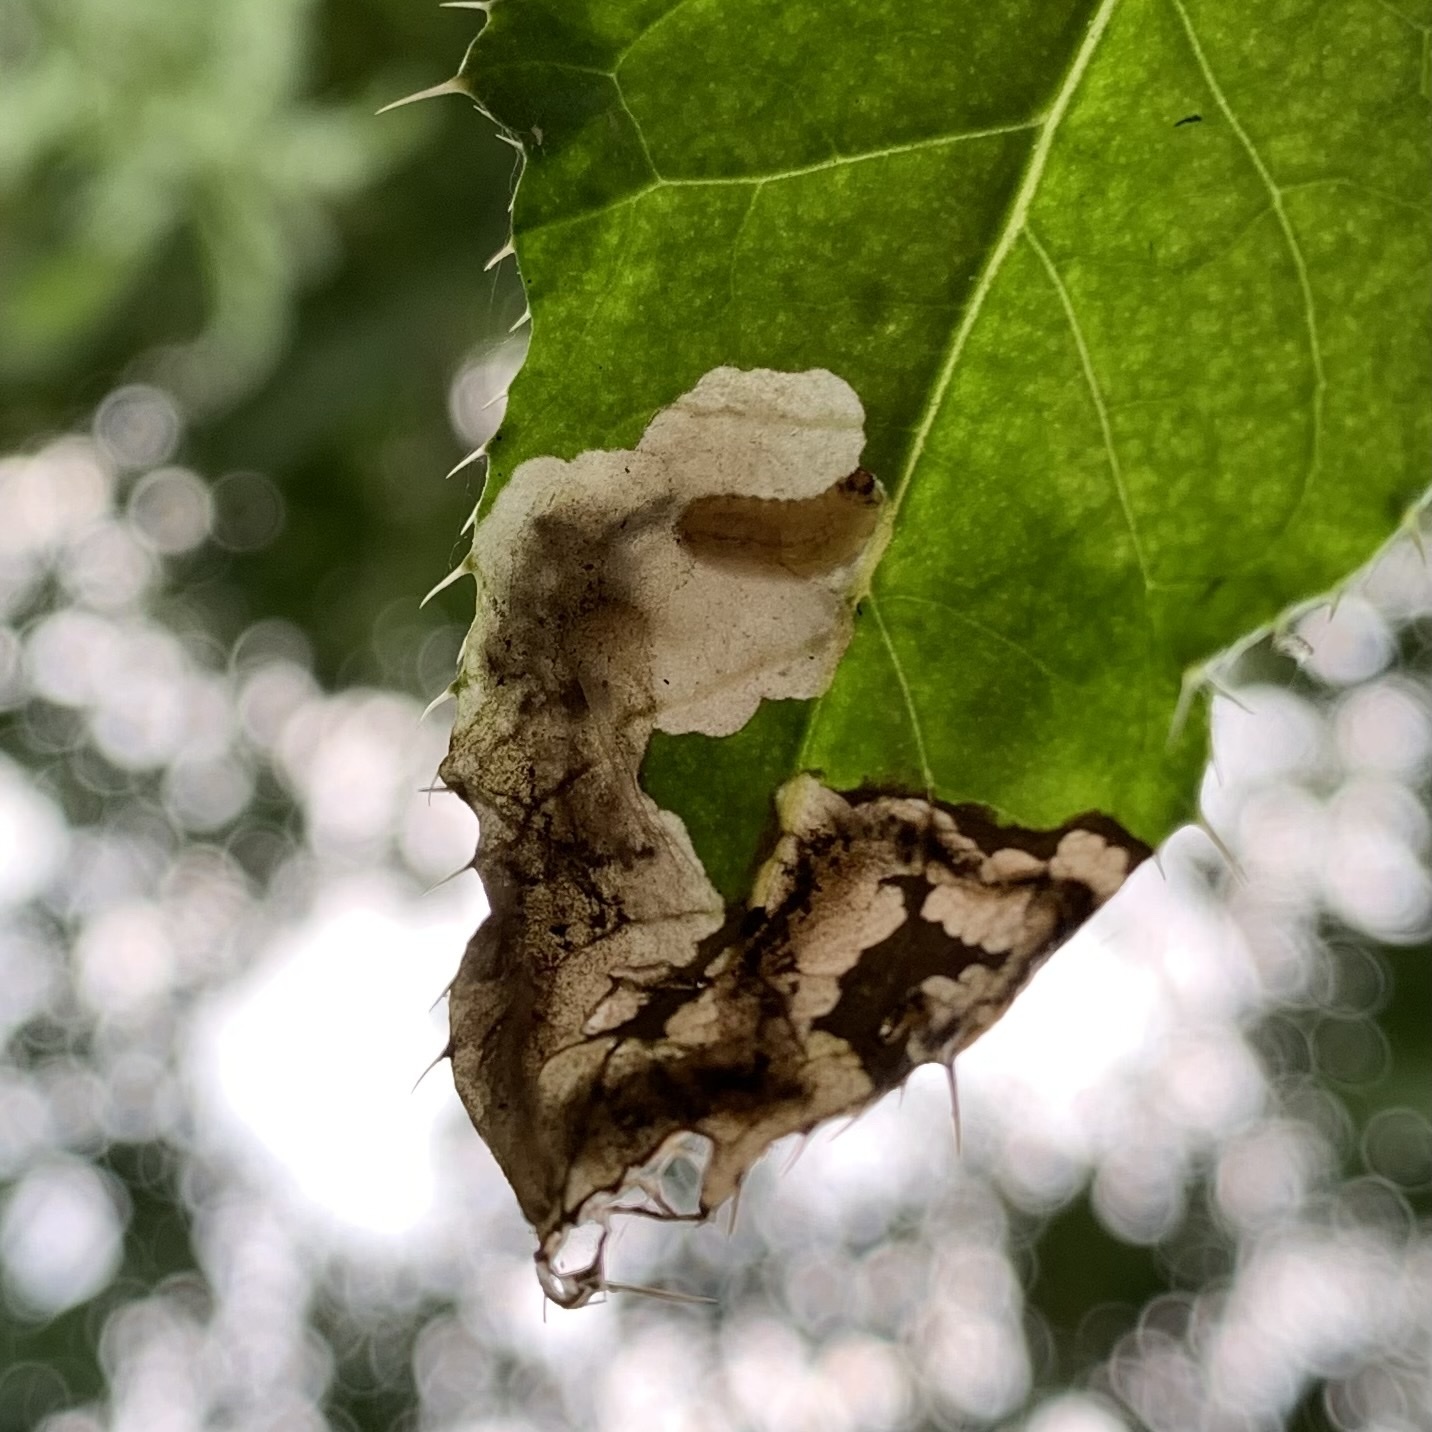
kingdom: Animalia
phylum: Arthropoda
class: Insecta
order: Coleoptera
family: Chrysomelidae
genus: Oulema
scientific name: Oulema palustris
